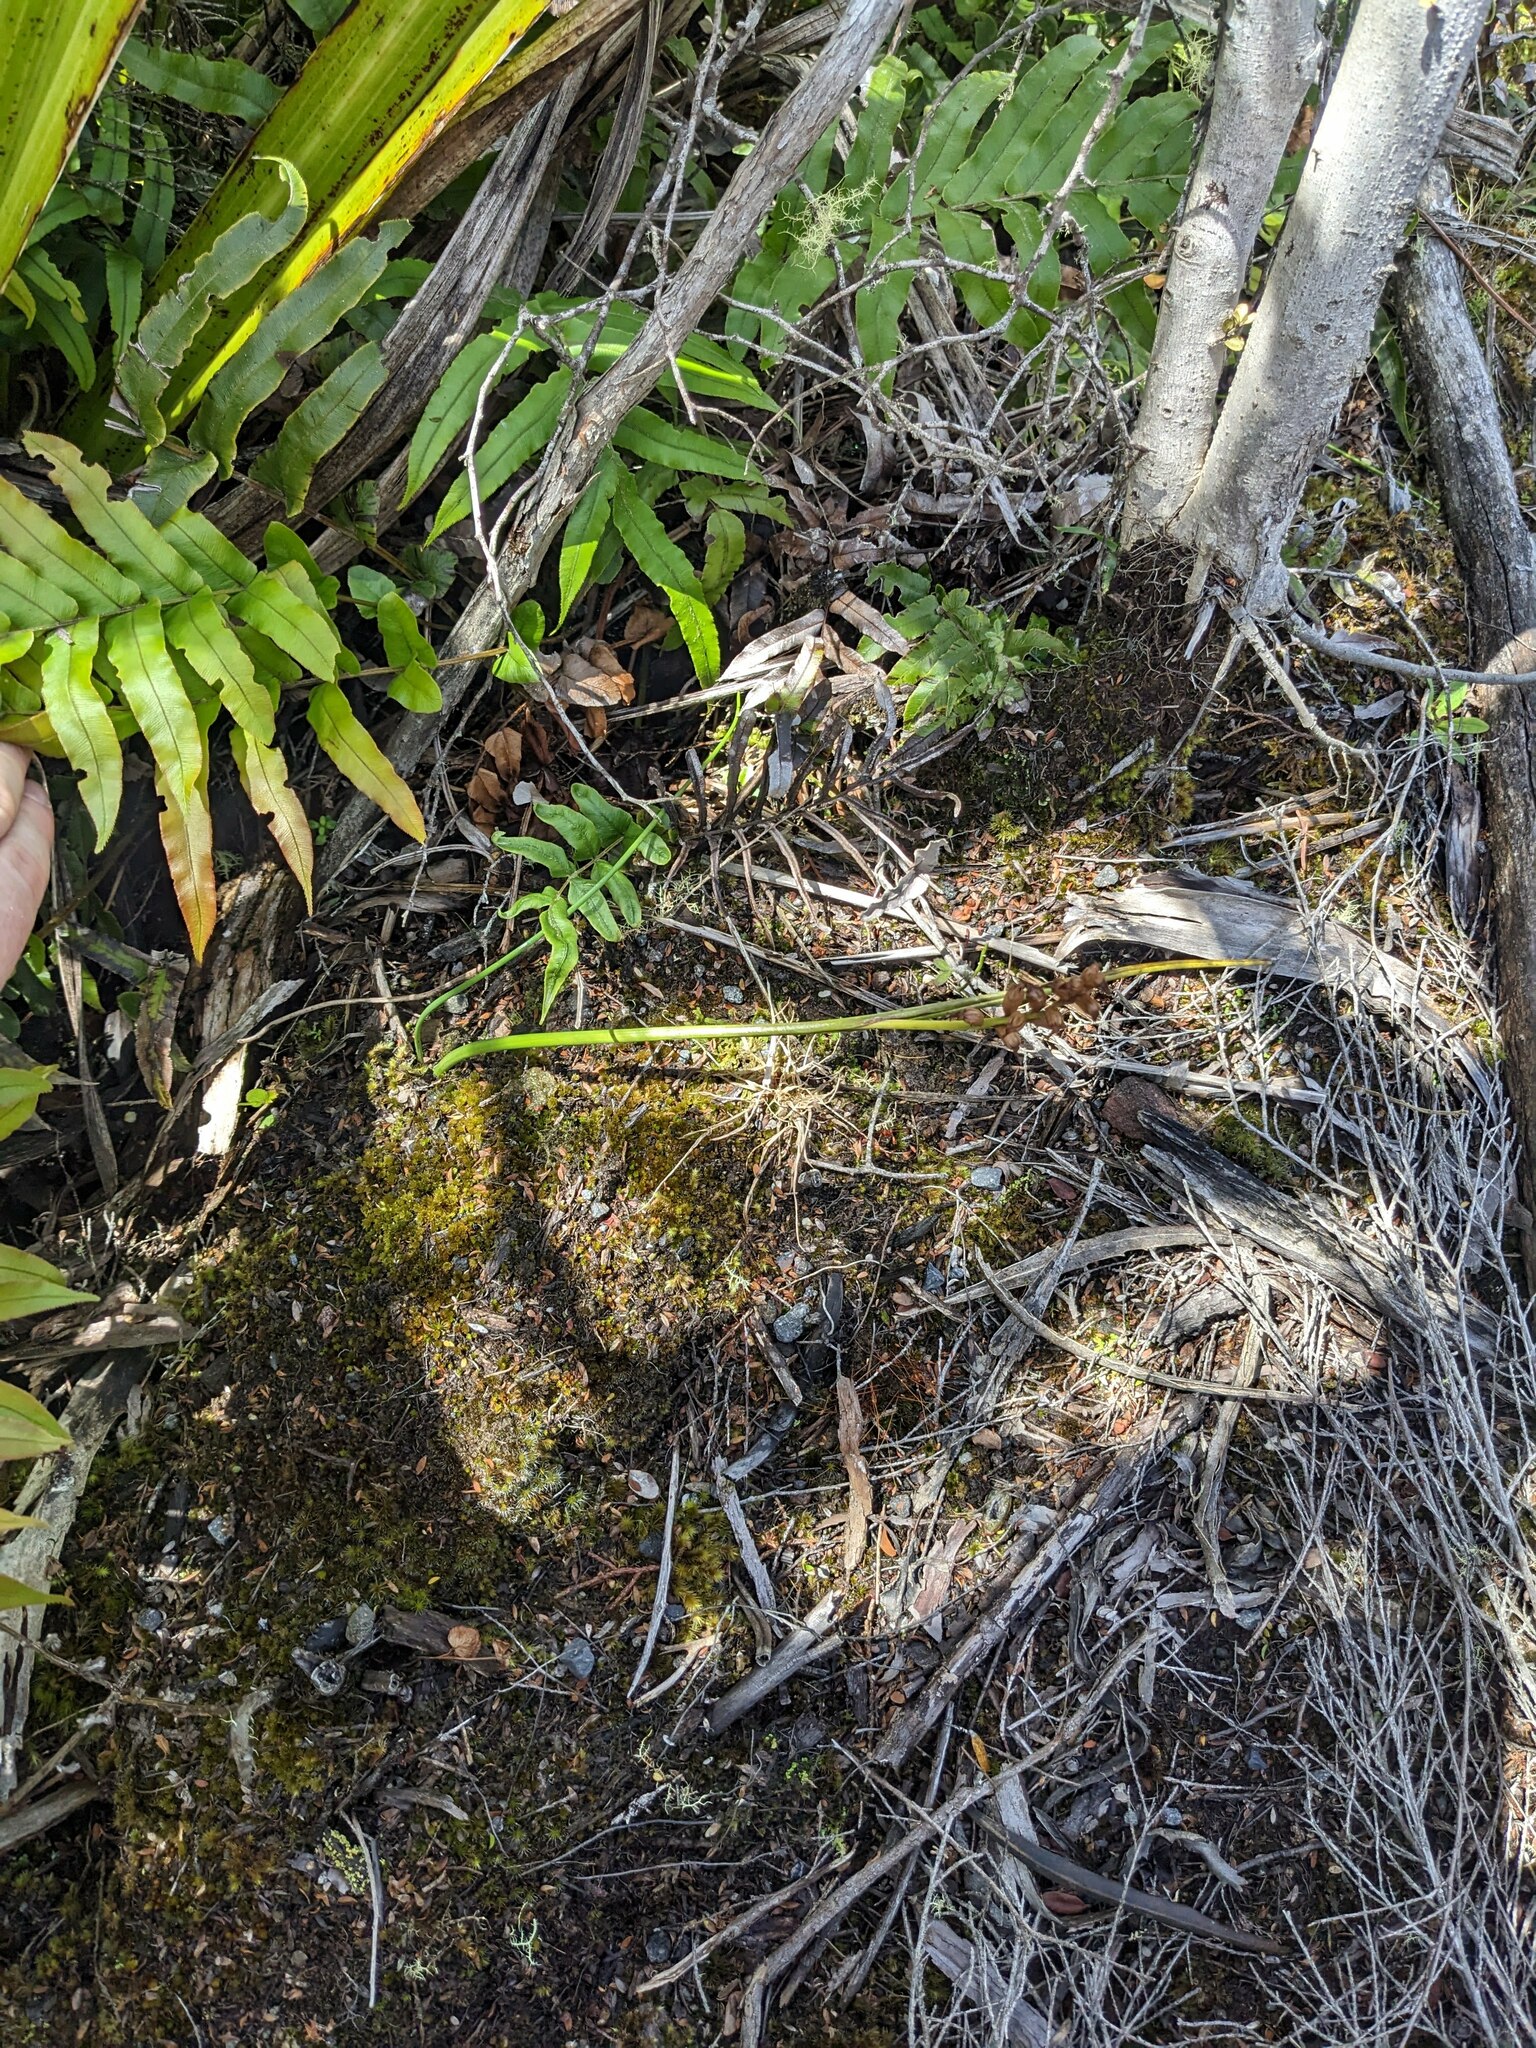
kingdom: Plantae
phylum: Tracheophyta
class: Liliopsida
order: Asparagales
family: Orchidaceae
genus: Prasophyllum
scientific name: Prasophyllum colensoi
